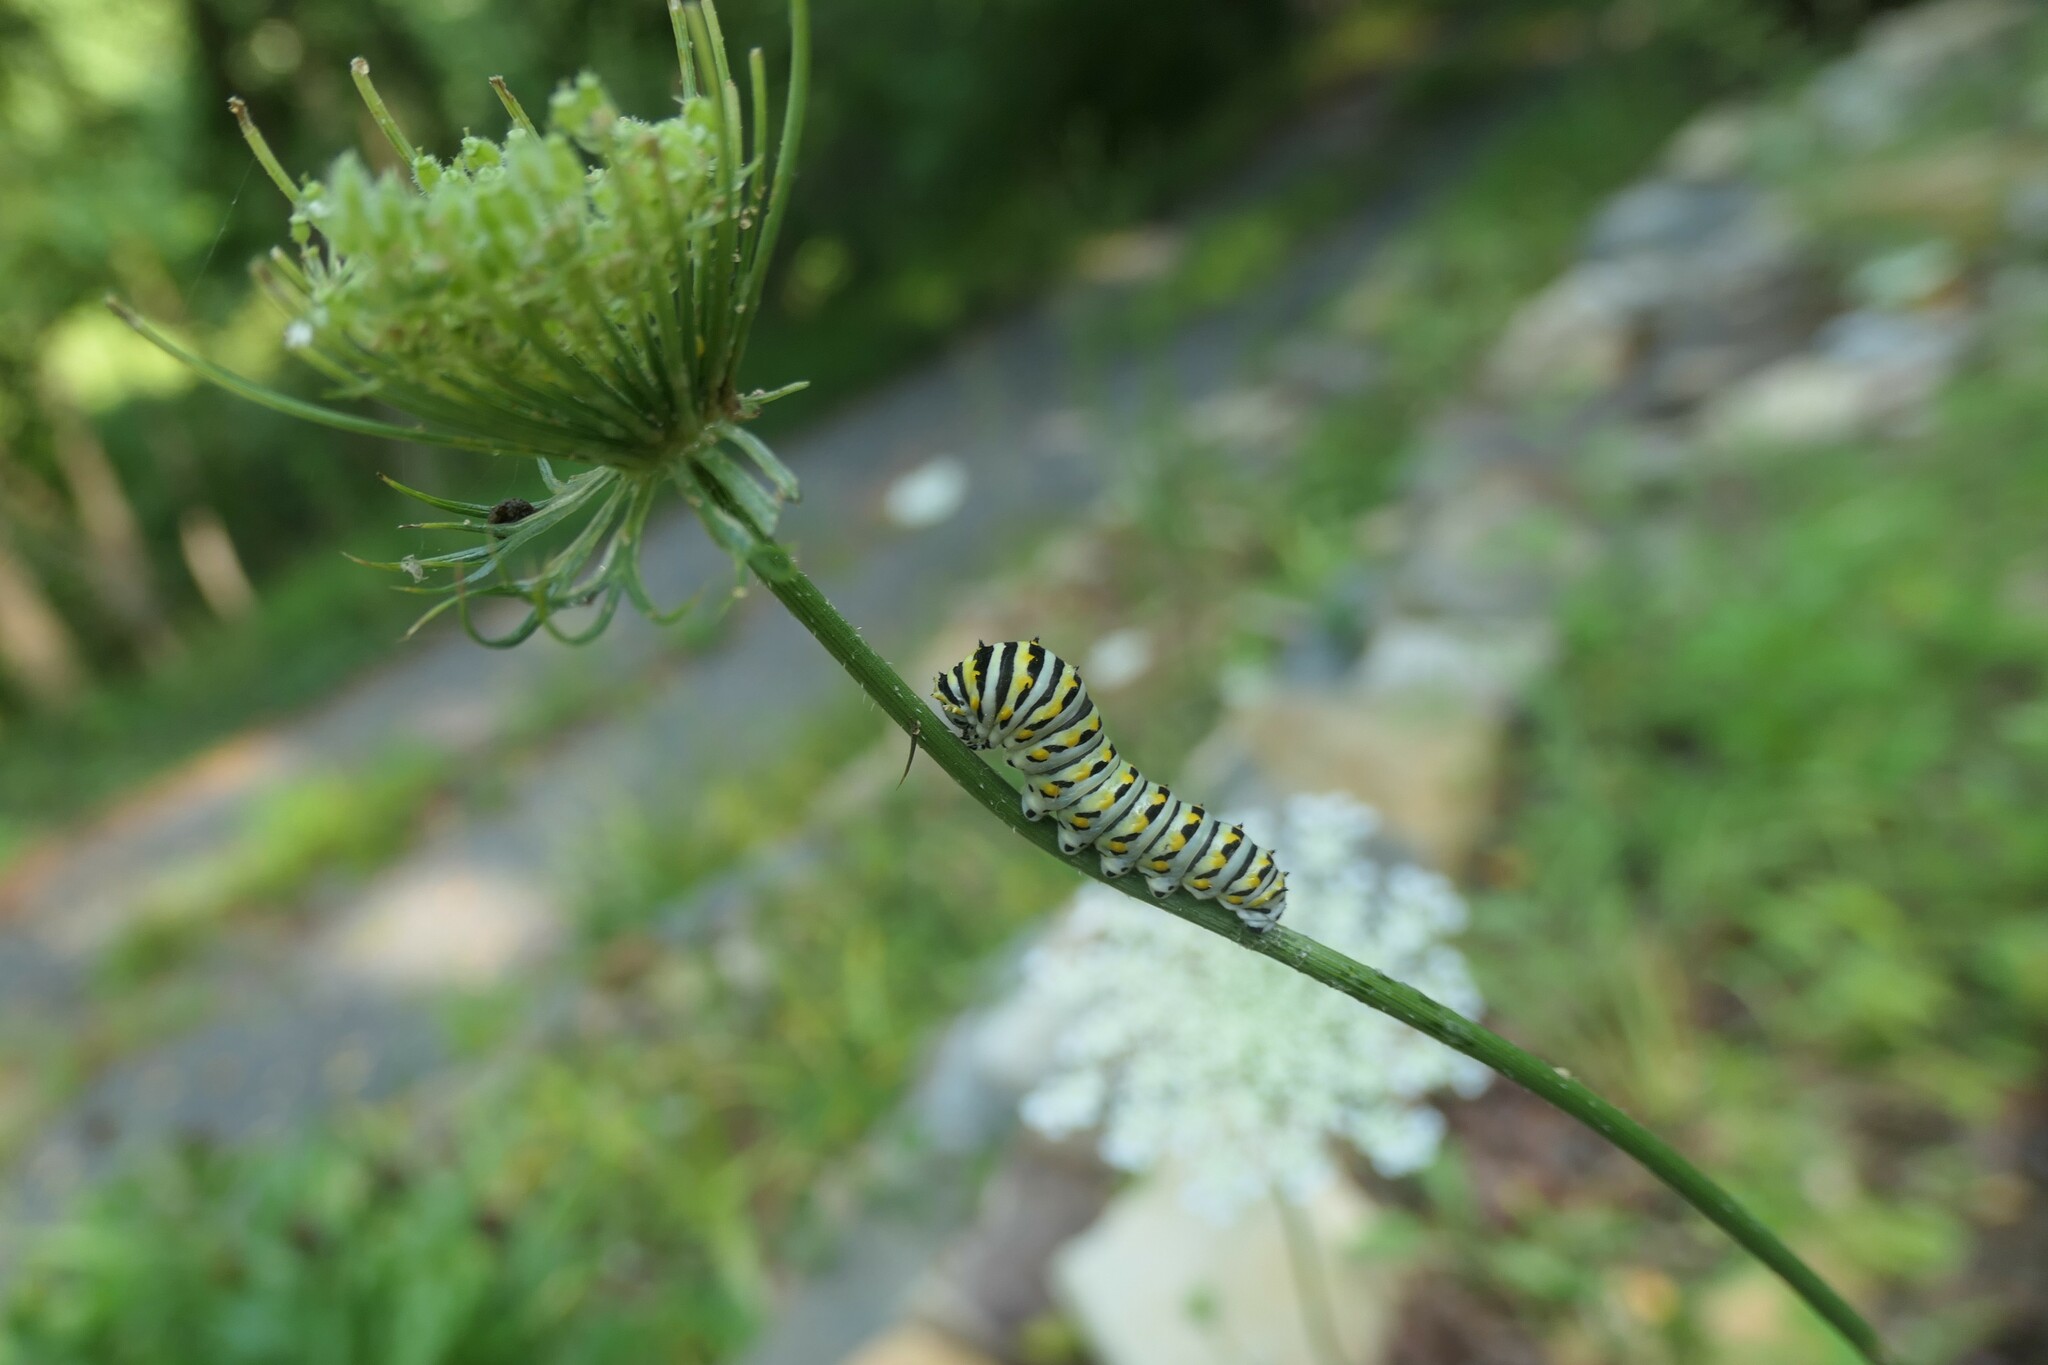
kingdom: Animalia
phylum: Arthropoda
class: Insecta
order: Lepidoptera
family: Papilionidae
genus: Papilio
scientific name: Papilio polyxenes
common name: Black swallowtail
